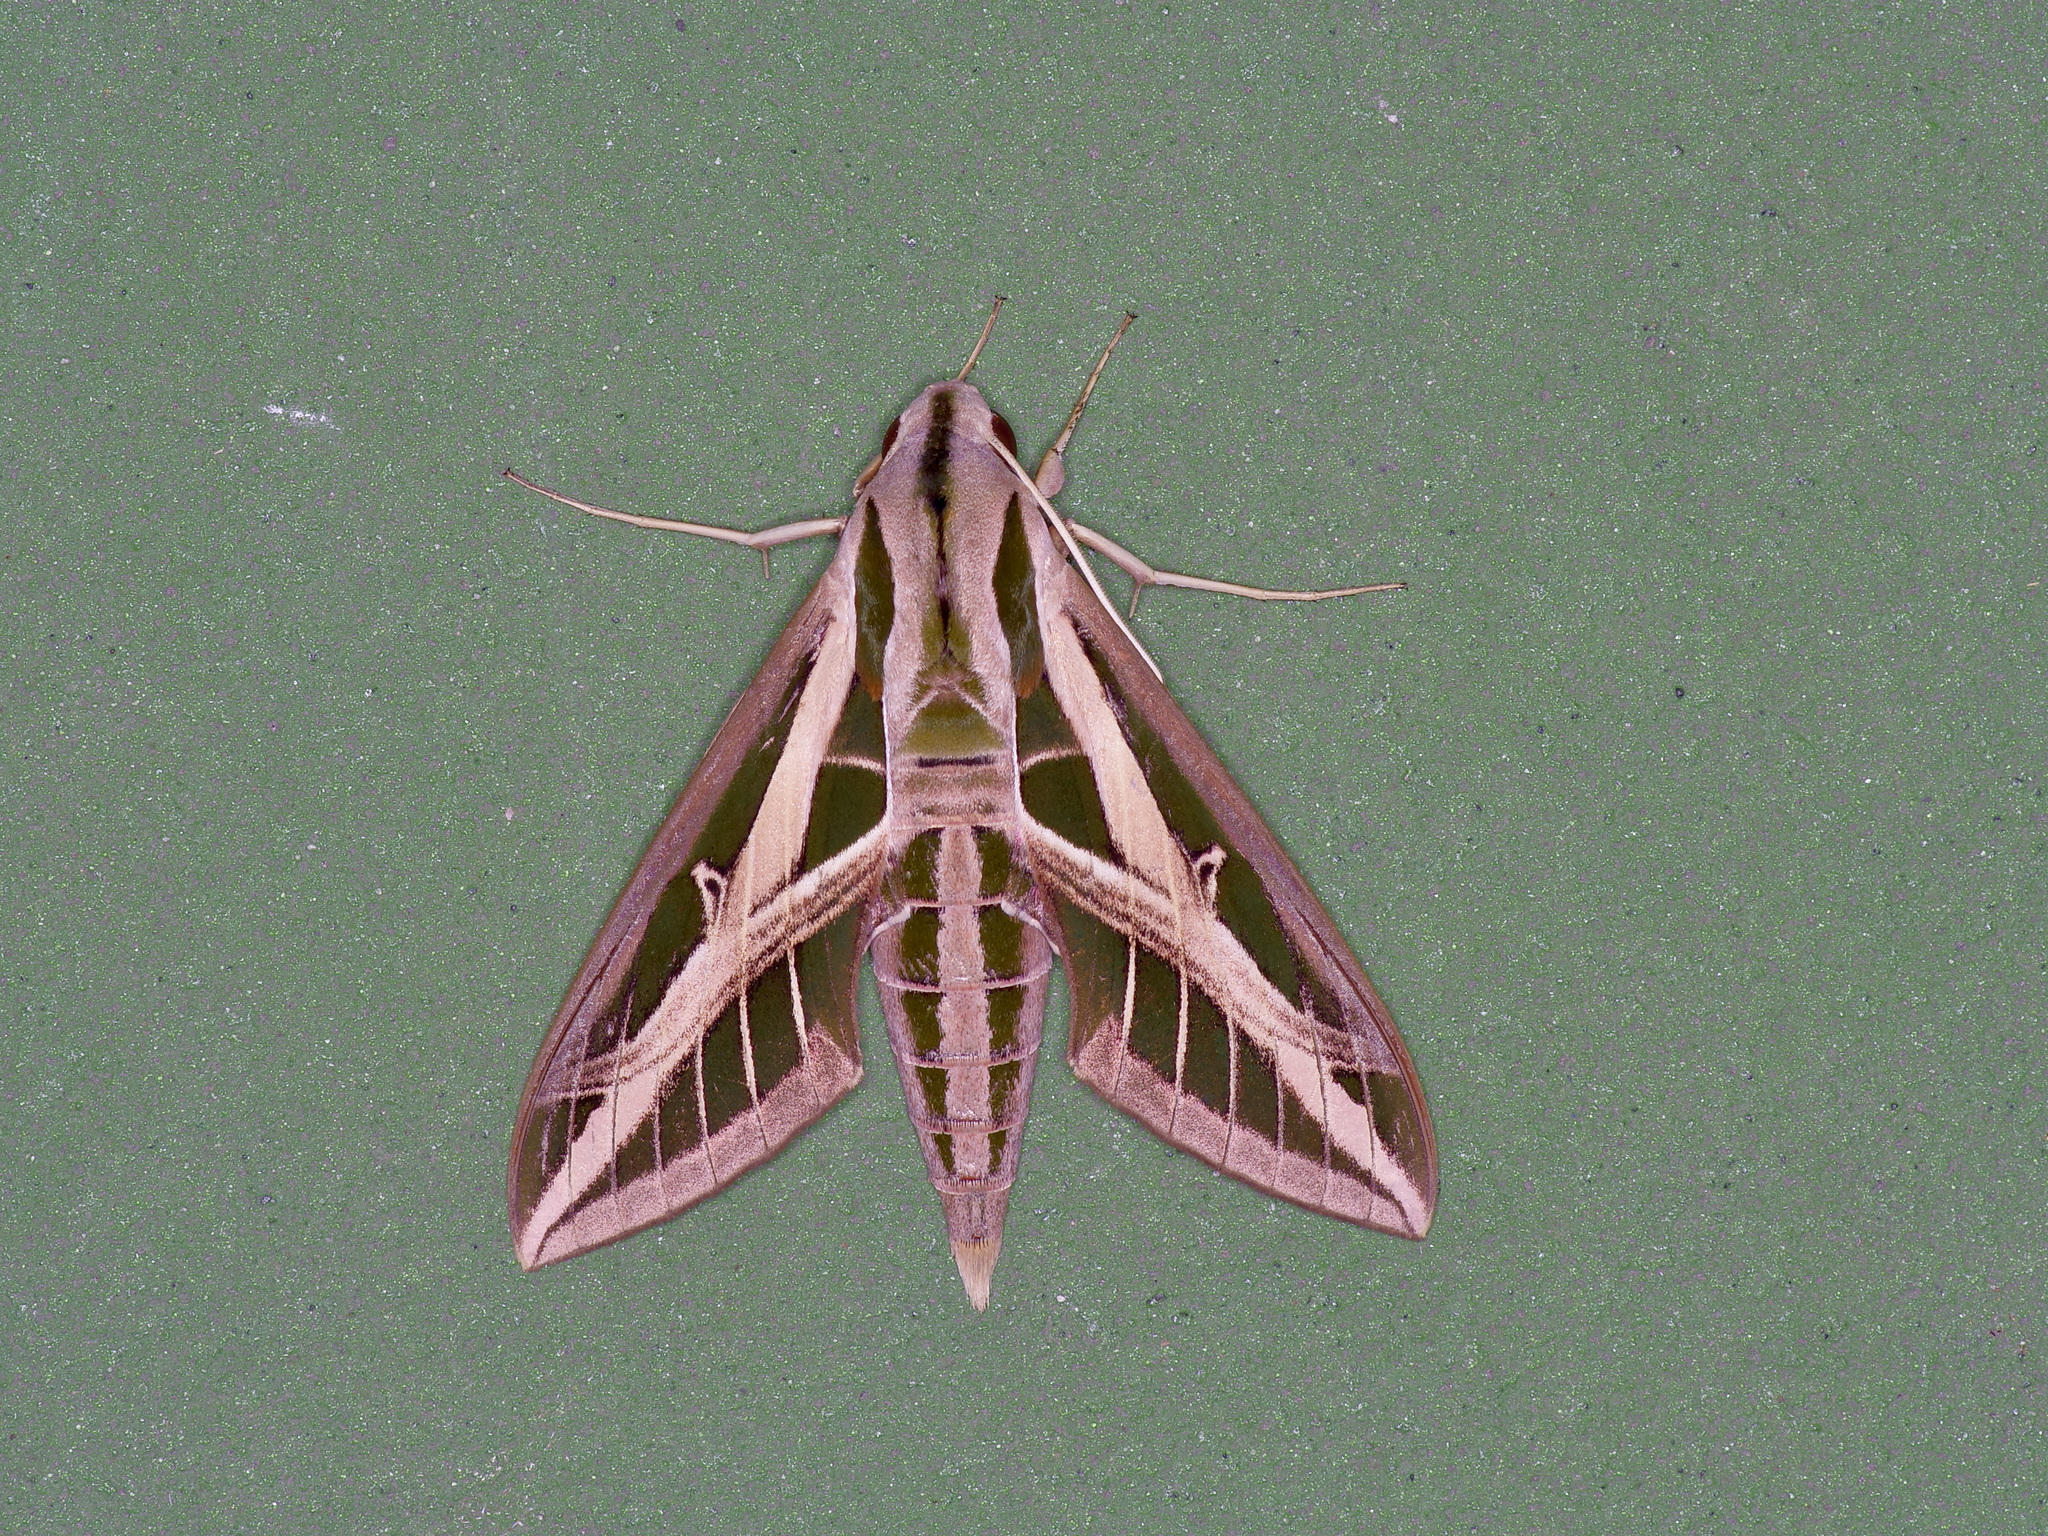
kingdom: Animalia
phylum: Arthropoda
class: Insecta
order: Lepidoptera
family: Sphingidae
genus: Eumorpha
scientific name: Eumorpha fasciatus
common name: Banded sphinx
